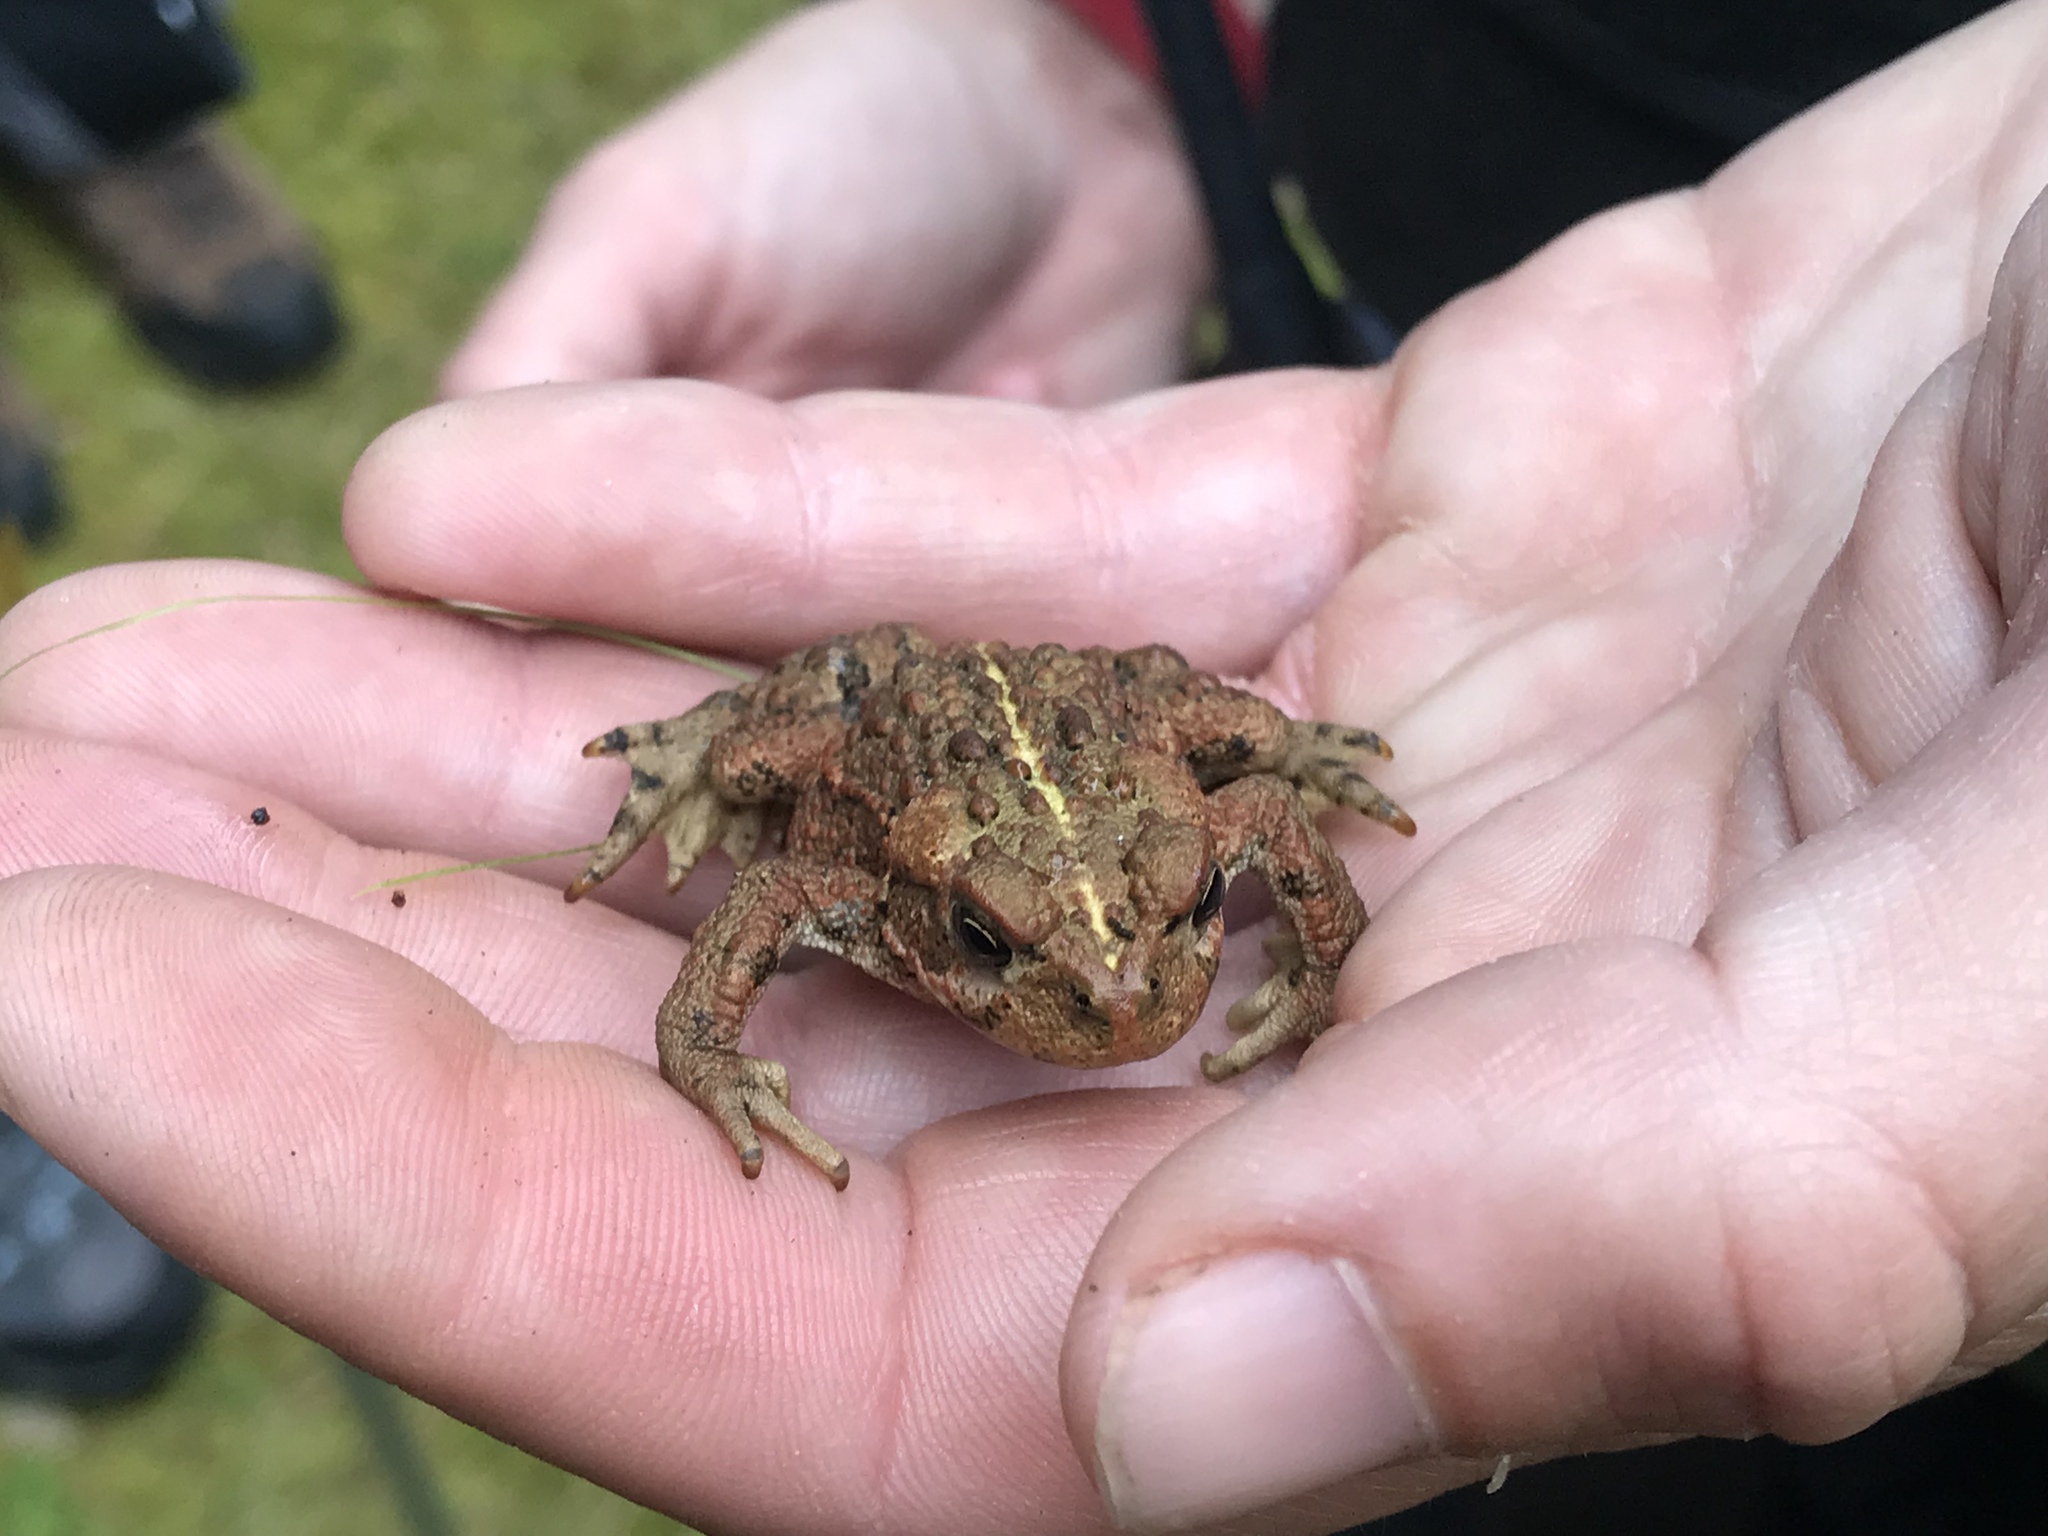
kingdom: Animalia
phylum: Chordata
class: Amphibia
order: Anura
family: Bufonidae
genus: Anaxyrus
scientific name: Anaxyrus boreas
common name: Western toad
